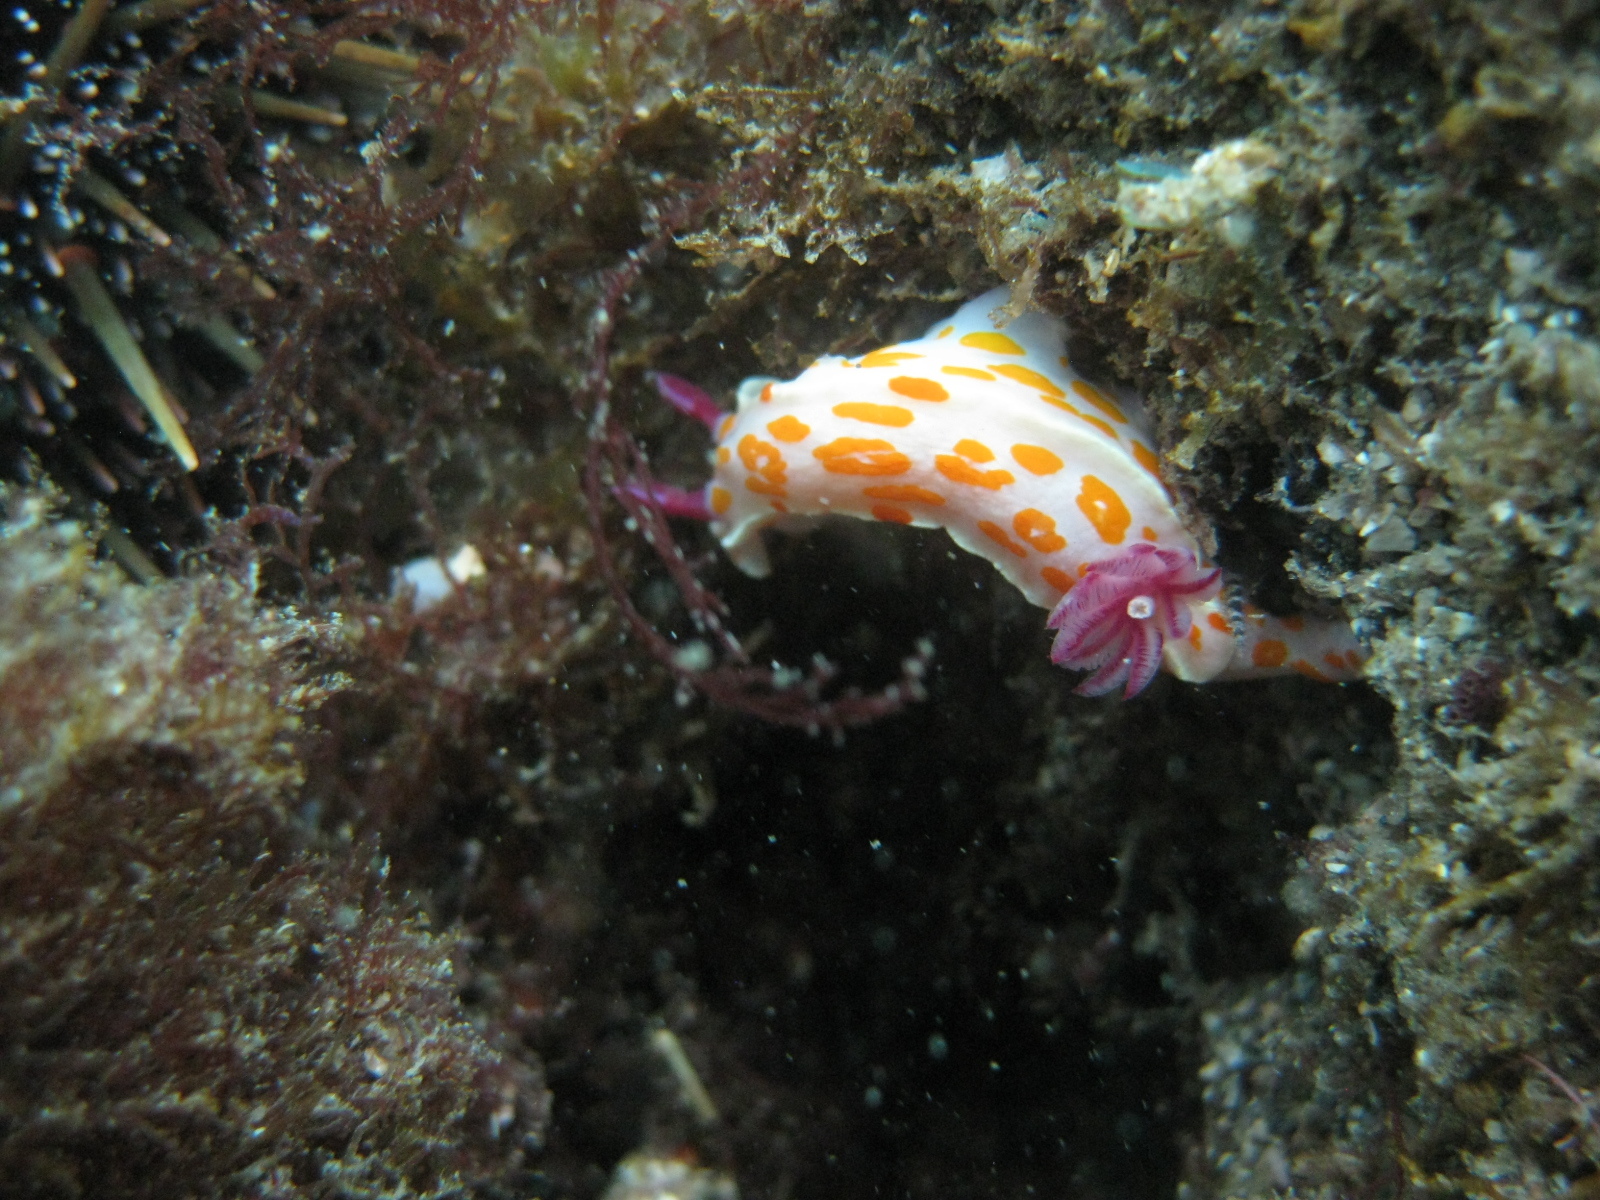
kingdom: Animalia
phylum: Mollusca
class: Gastropoda
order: Nudibranchia
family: Chromodorididae
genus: Ceratosoma
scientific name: Ceratosoma amoenum
